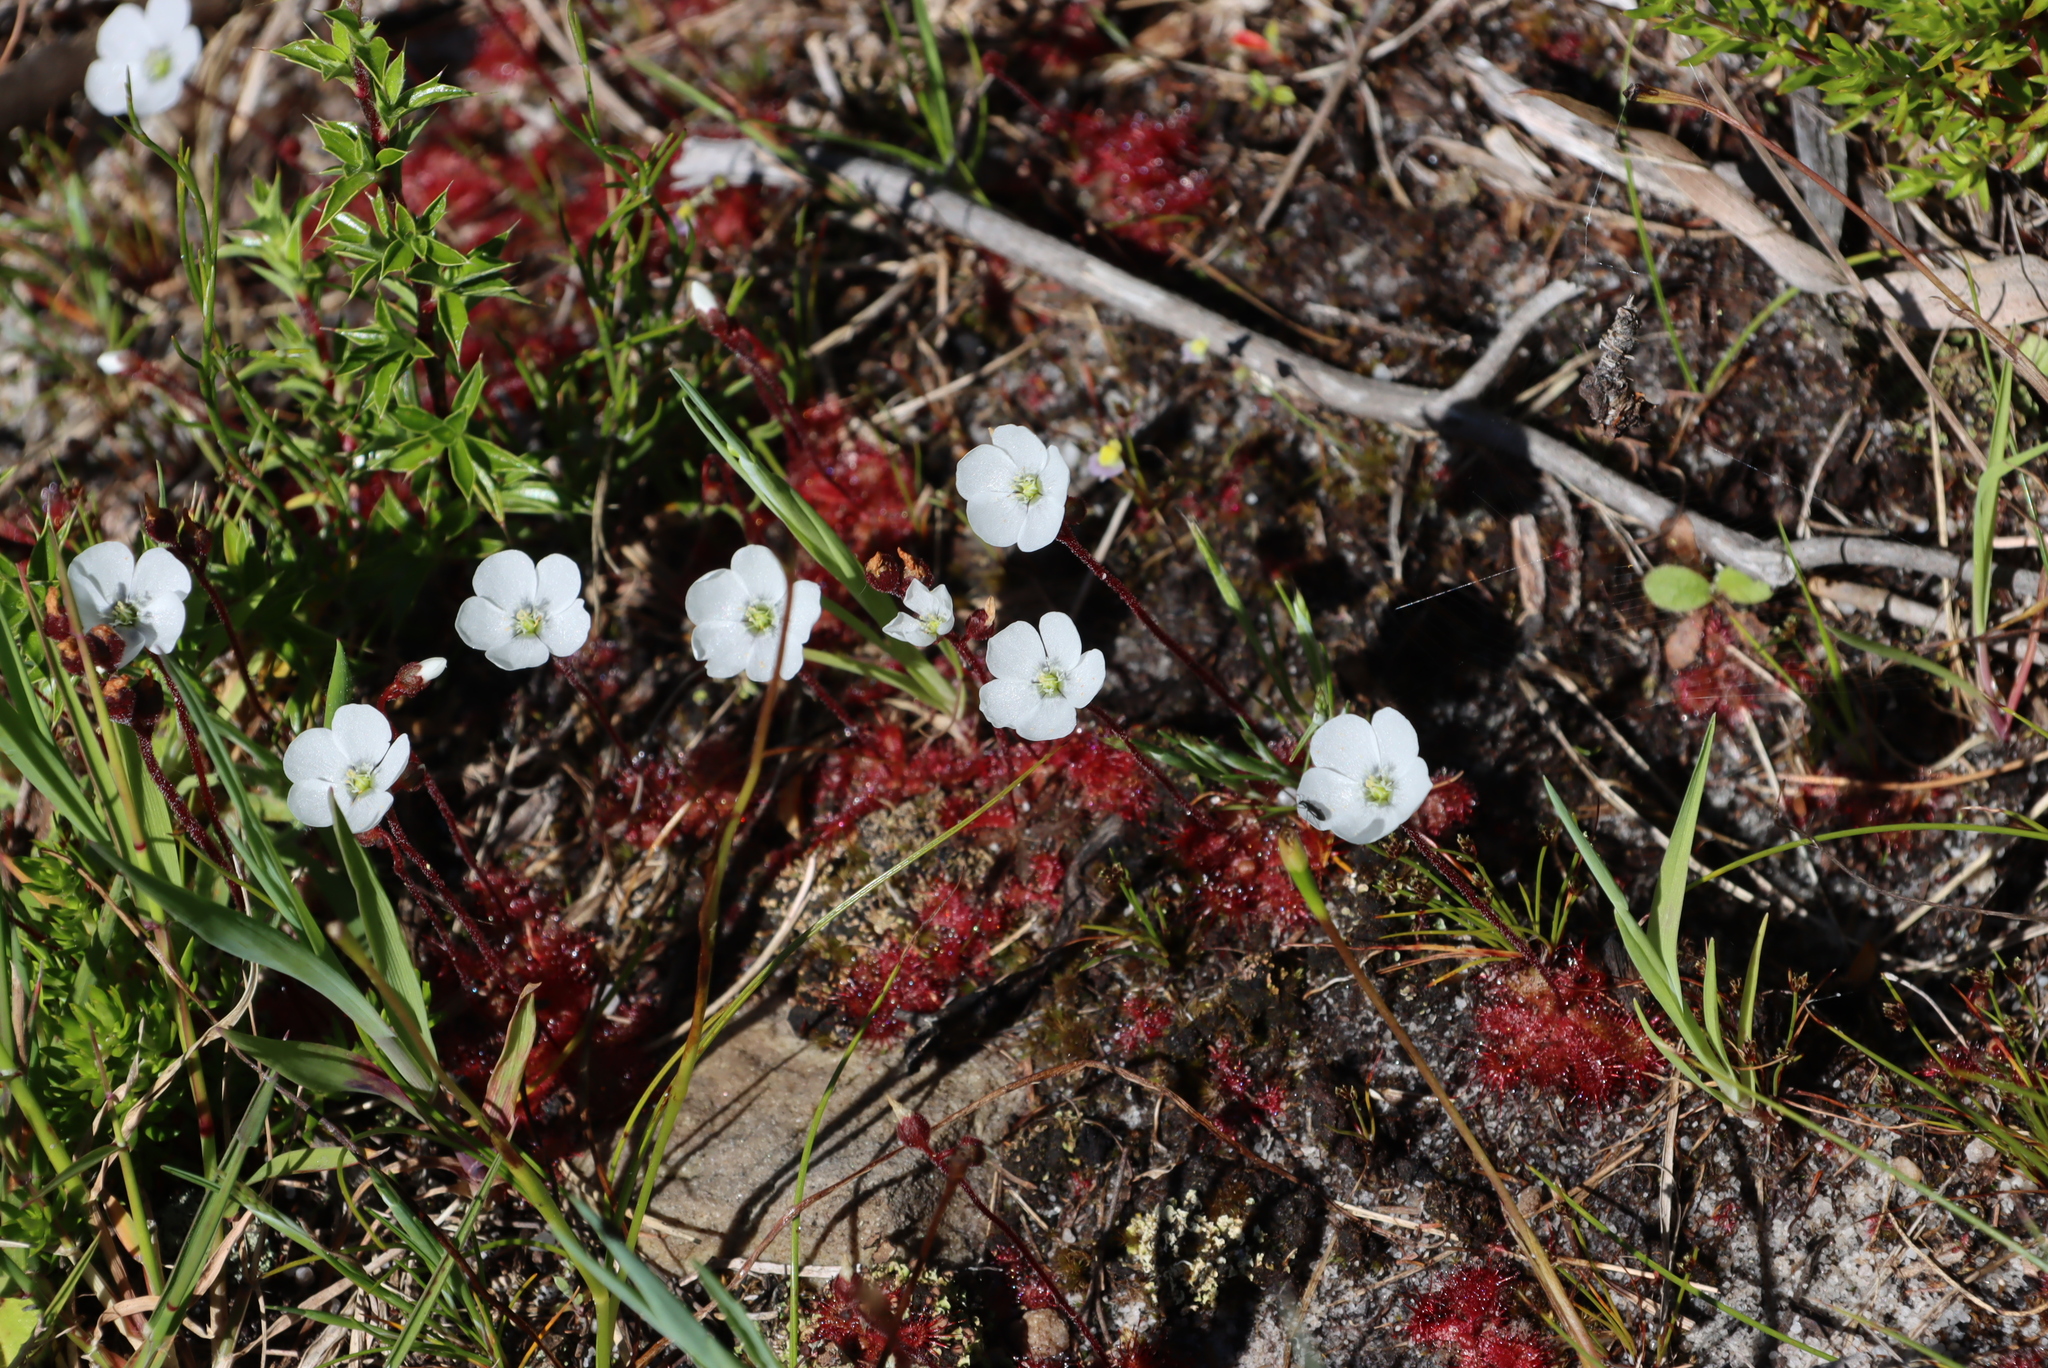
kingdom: Plantae
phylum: Tracheophyta
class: Magnoliopsida
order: Caryophyllales
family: Droseraceae
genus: Drosera
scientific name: Drosera trinervia
